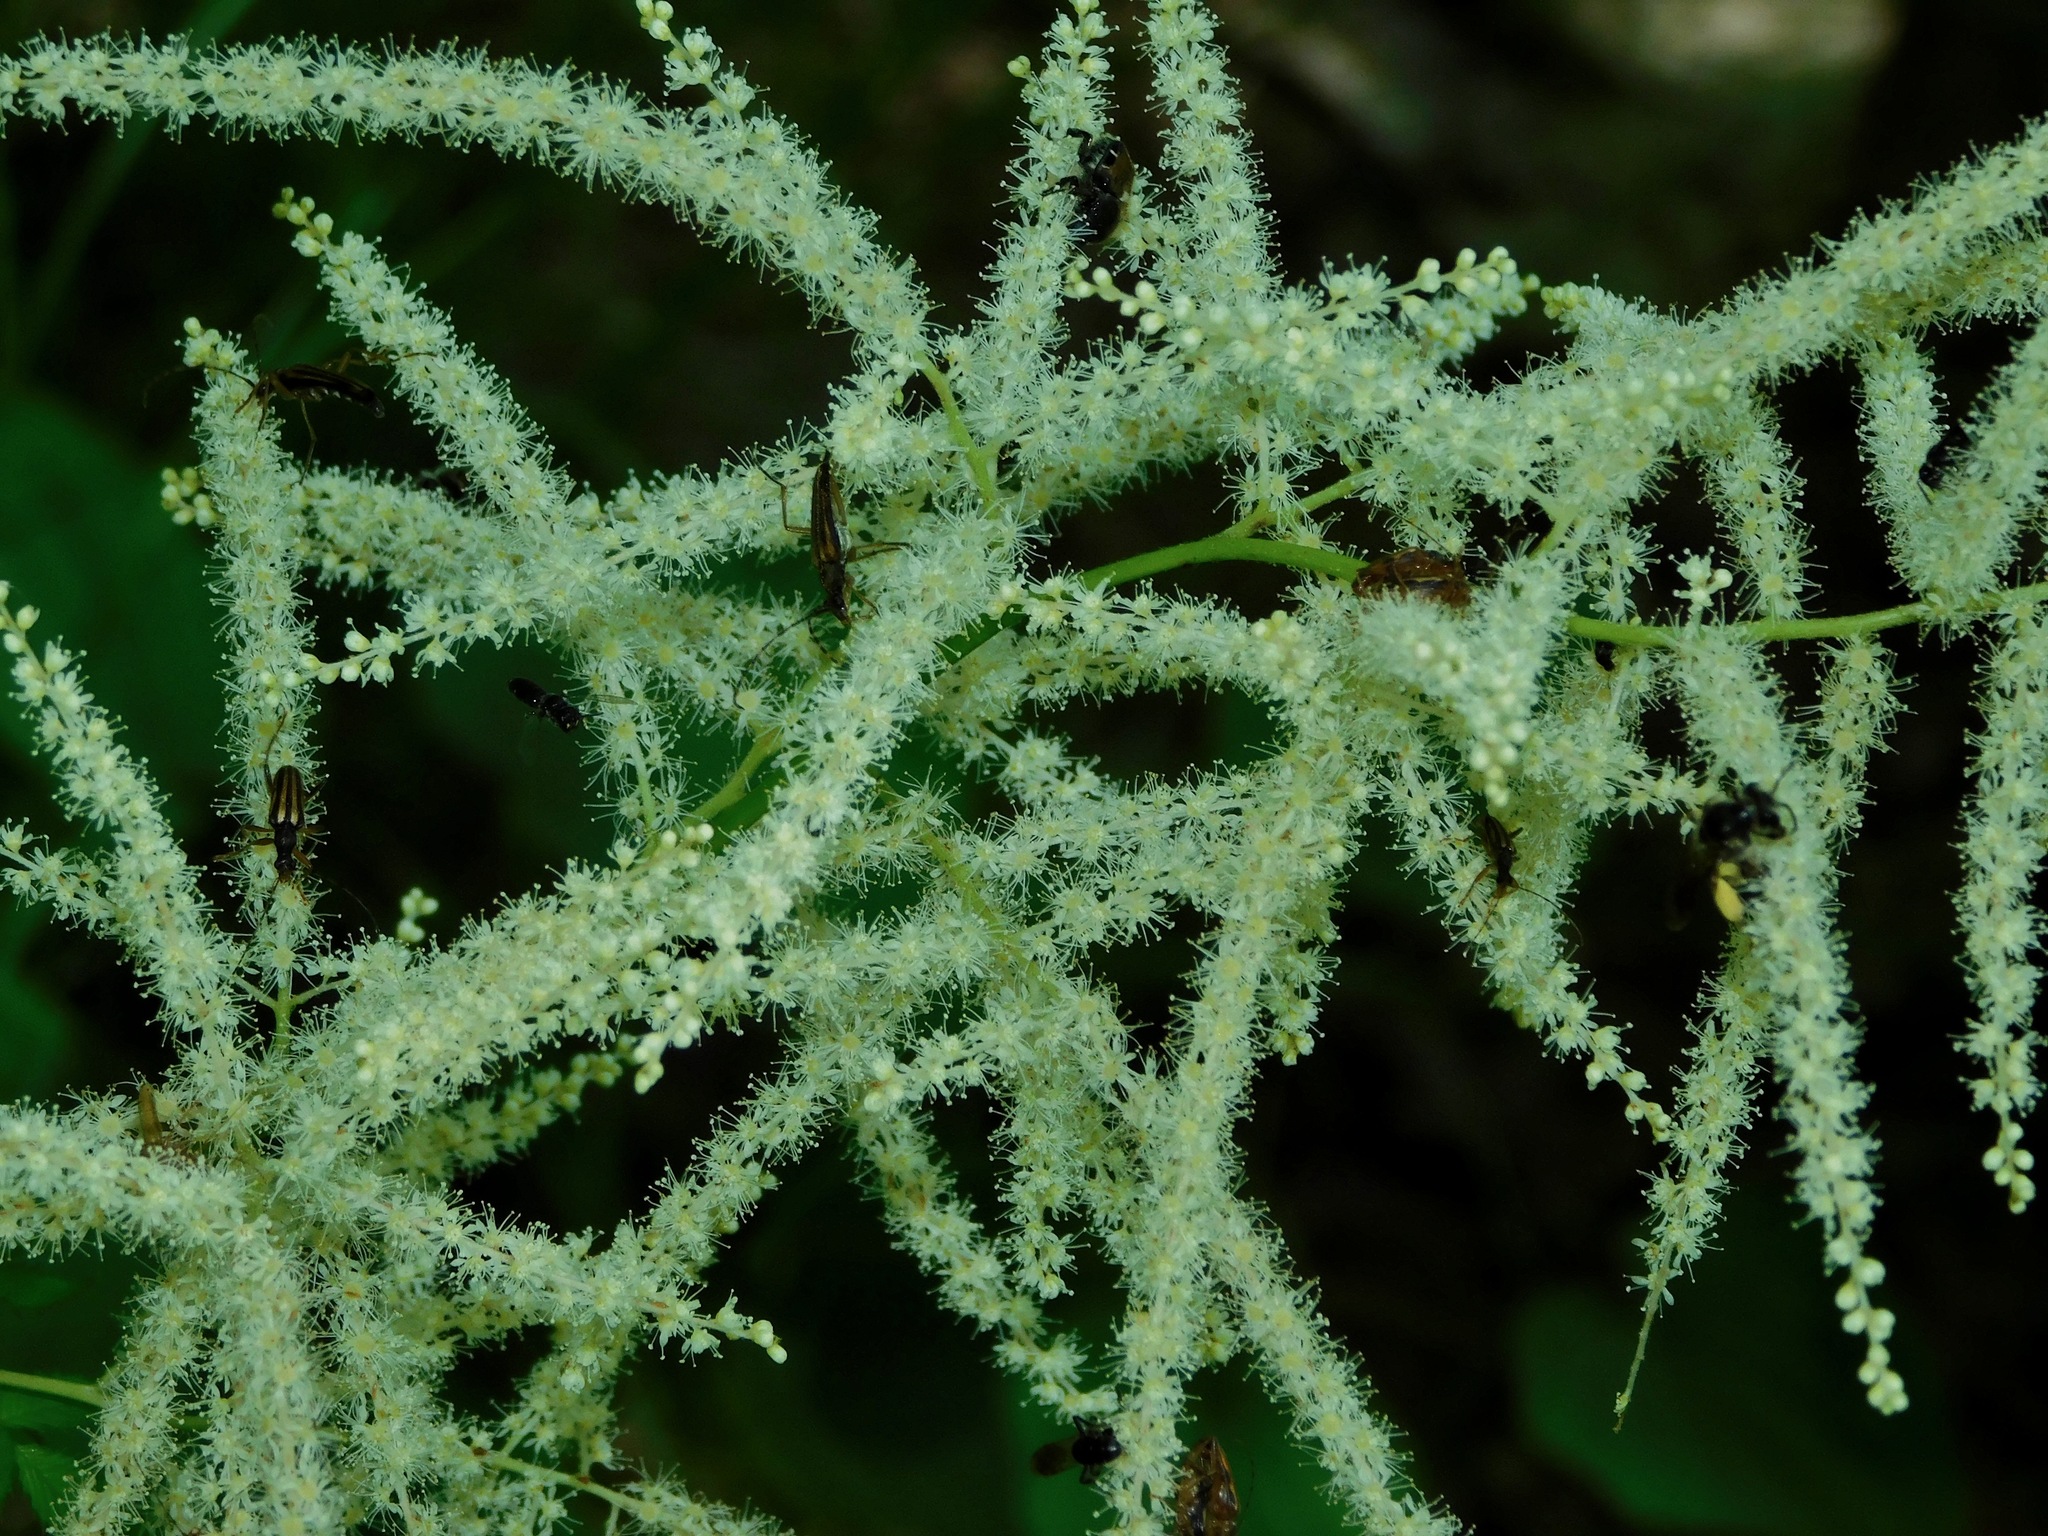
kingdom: Plantae
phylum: Tracheophyta
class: Magnoliopsida
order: Rosales
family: Rosaceae
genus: Aruncus
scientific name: Aruncus dioicus
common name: Buck's-beard
